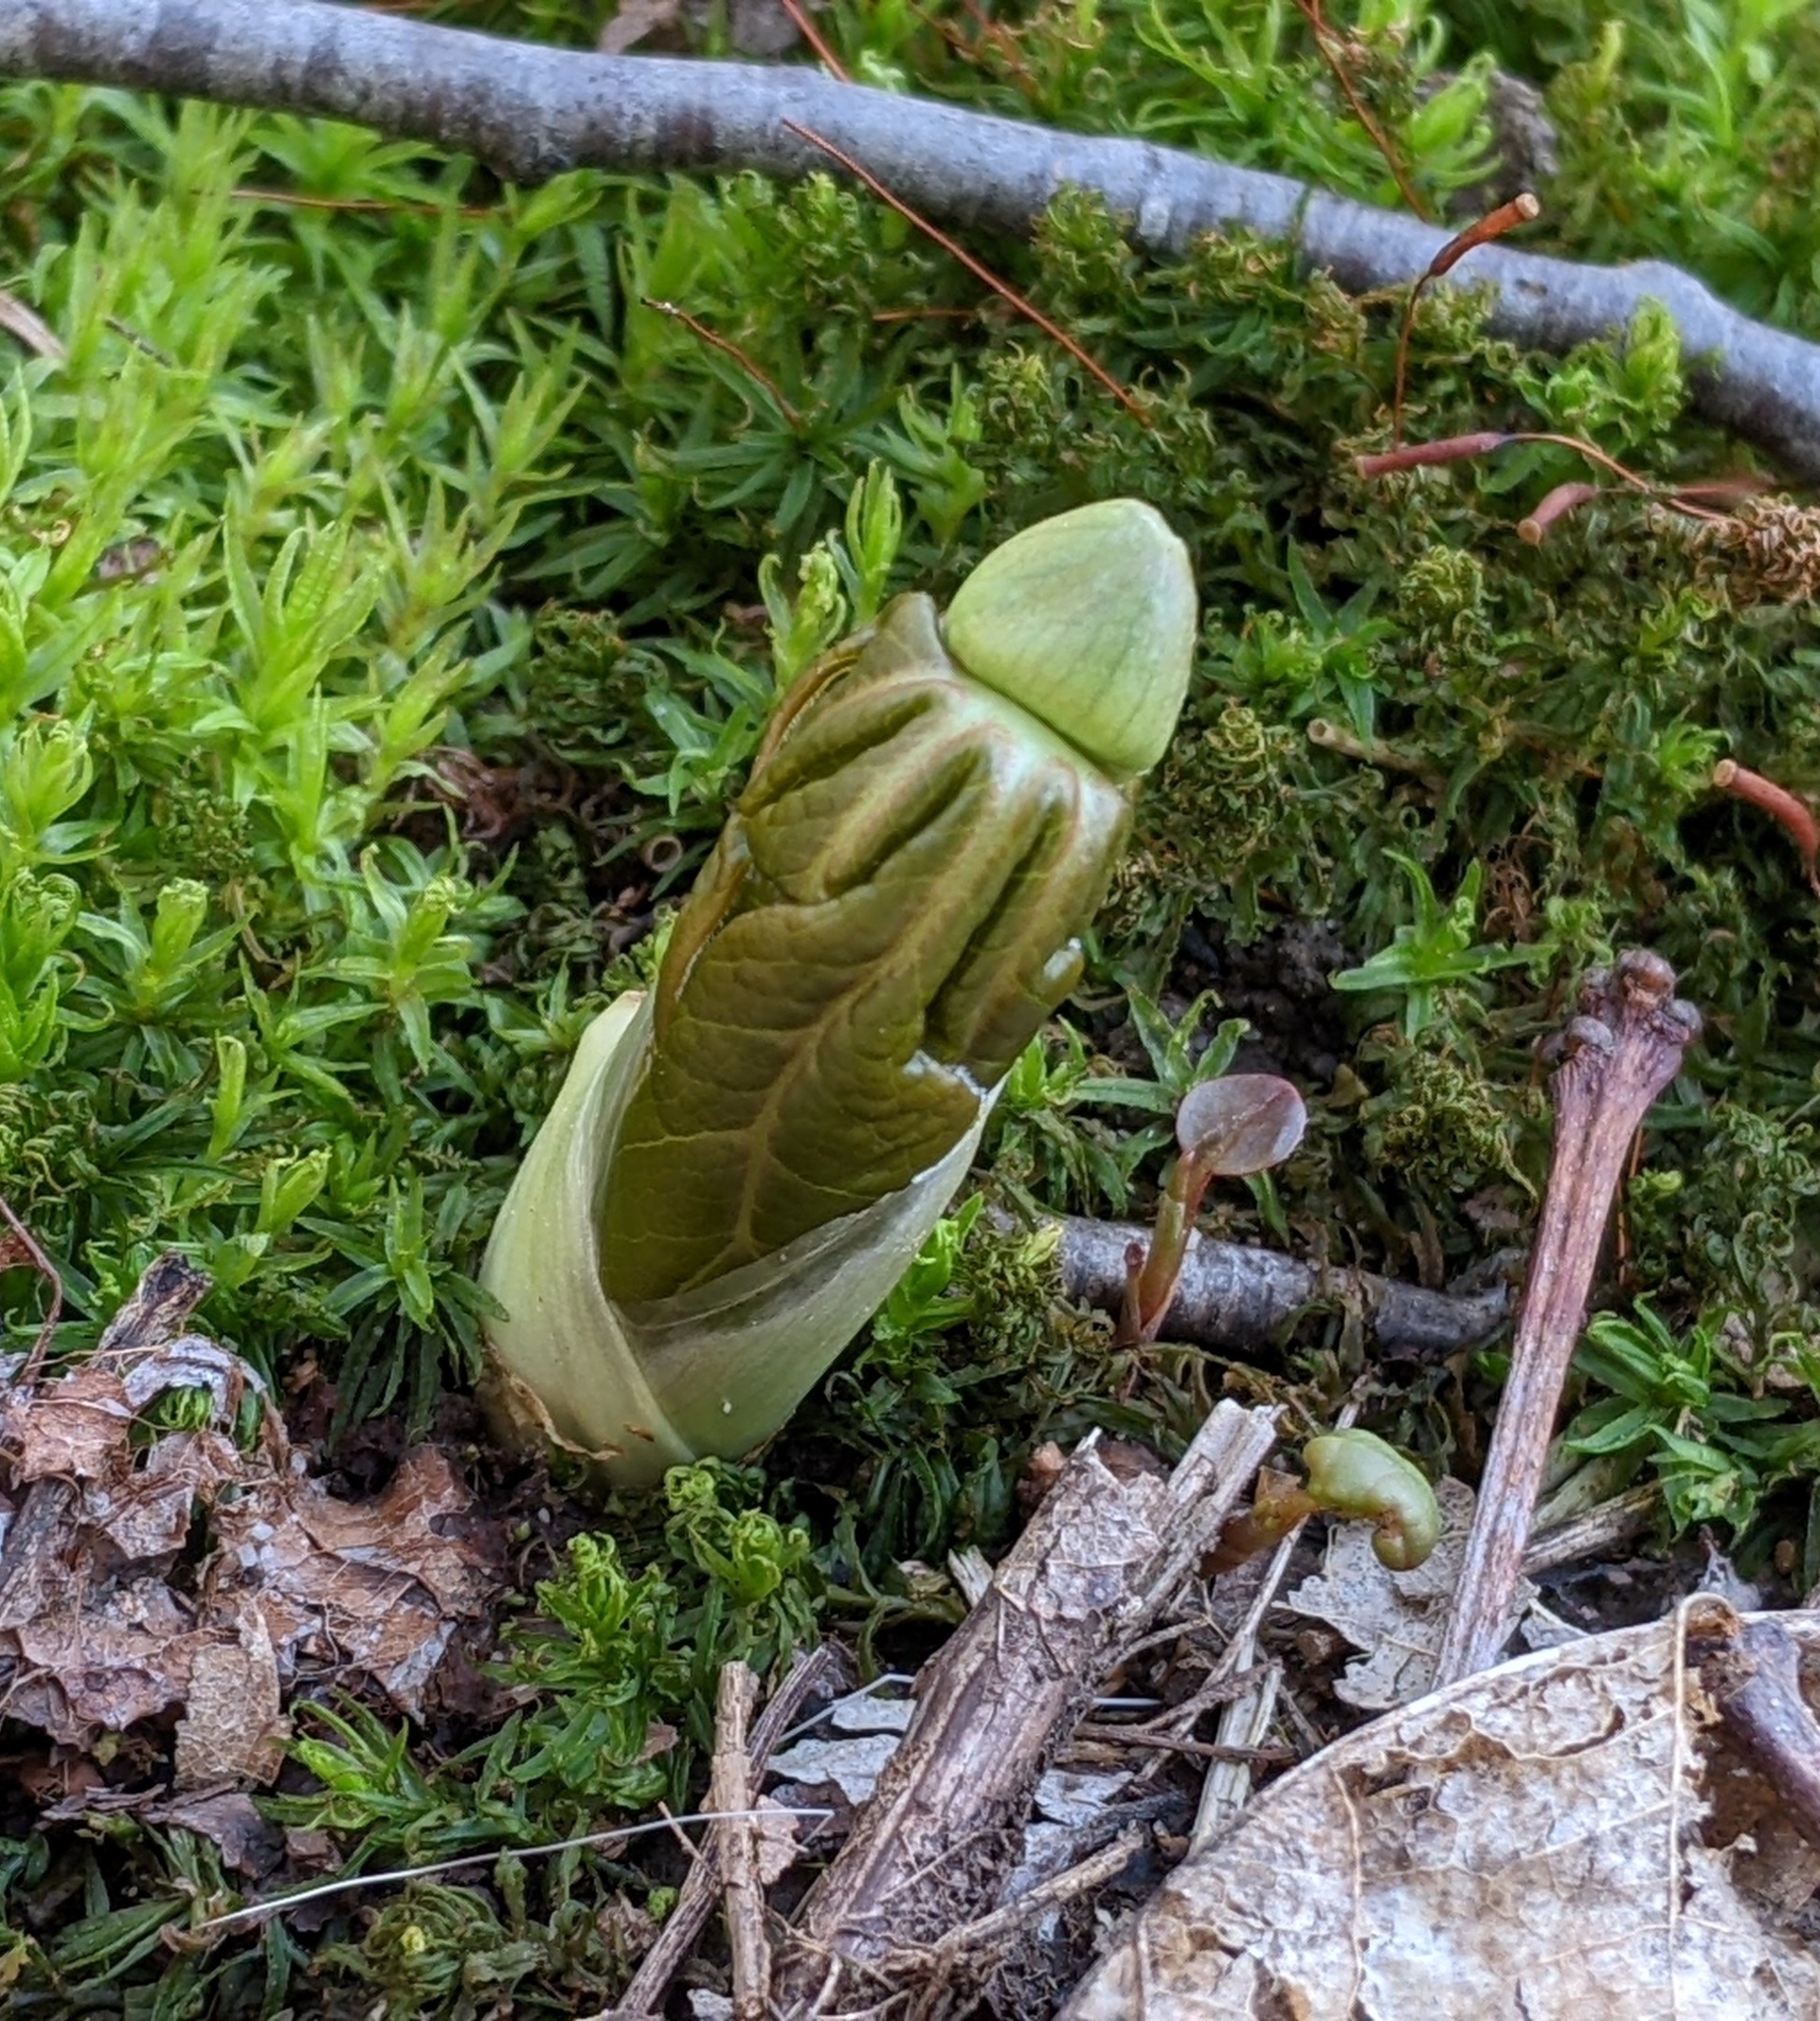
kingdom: Plantae
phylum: Tracheophyta
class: Magnoliopsida
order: Ranunculales
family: Berberidaceae
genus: Podophyllum
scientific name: Podophyllum peltatum
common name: Wild mandrake
